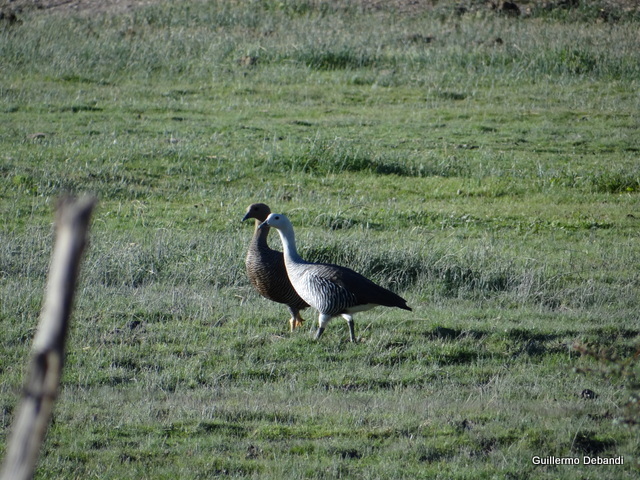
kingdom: Animalia
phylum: Chordata
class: Aves
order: Anseriformes
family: Anatidae
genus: Chloephaga
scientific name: Chloephaga picta
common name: Upland goose
